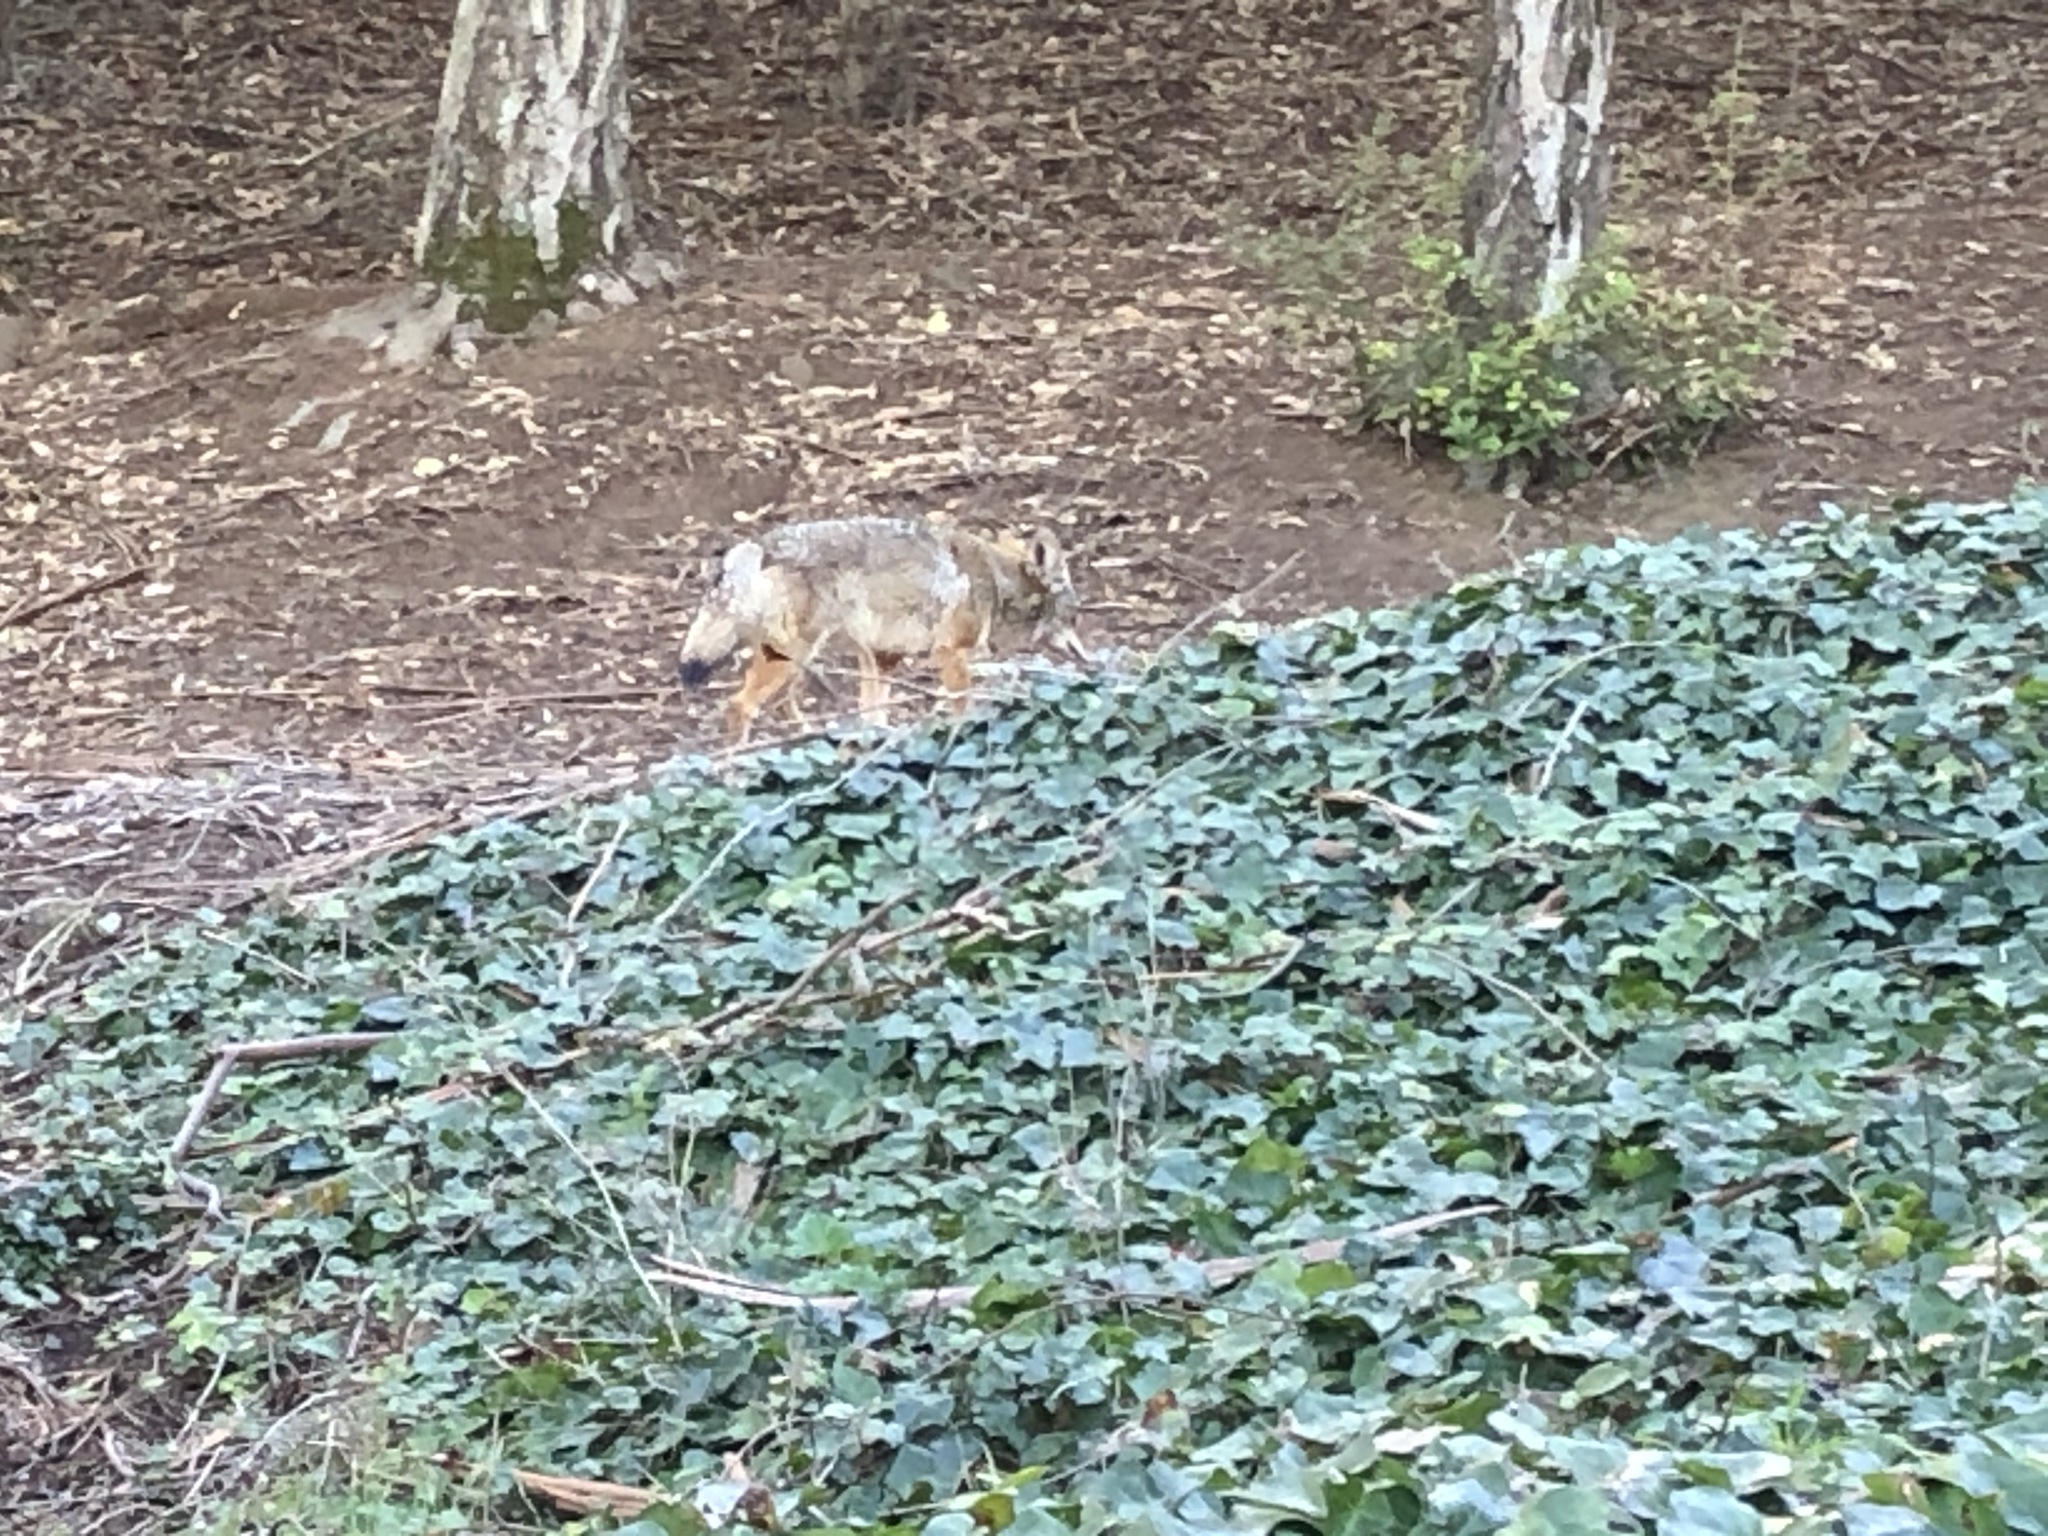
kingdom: Animalia
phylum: Chordata
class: Mammalia
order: Carnivora
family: Canidae
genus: Canis
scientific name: Canis latrans
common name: Coyote
